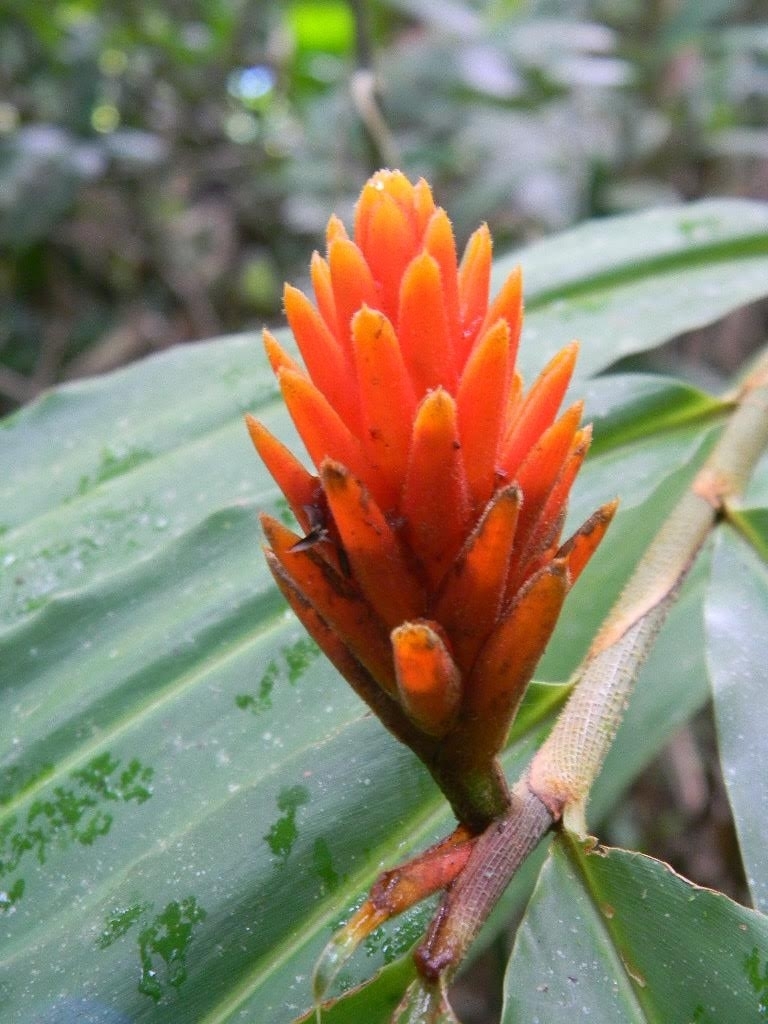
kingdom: Plantae
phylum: Tracheophyta
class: Liliopsida
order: Zingiberales
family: Zingiberaceae
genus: Renealmia
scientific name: Renealmia cernua
